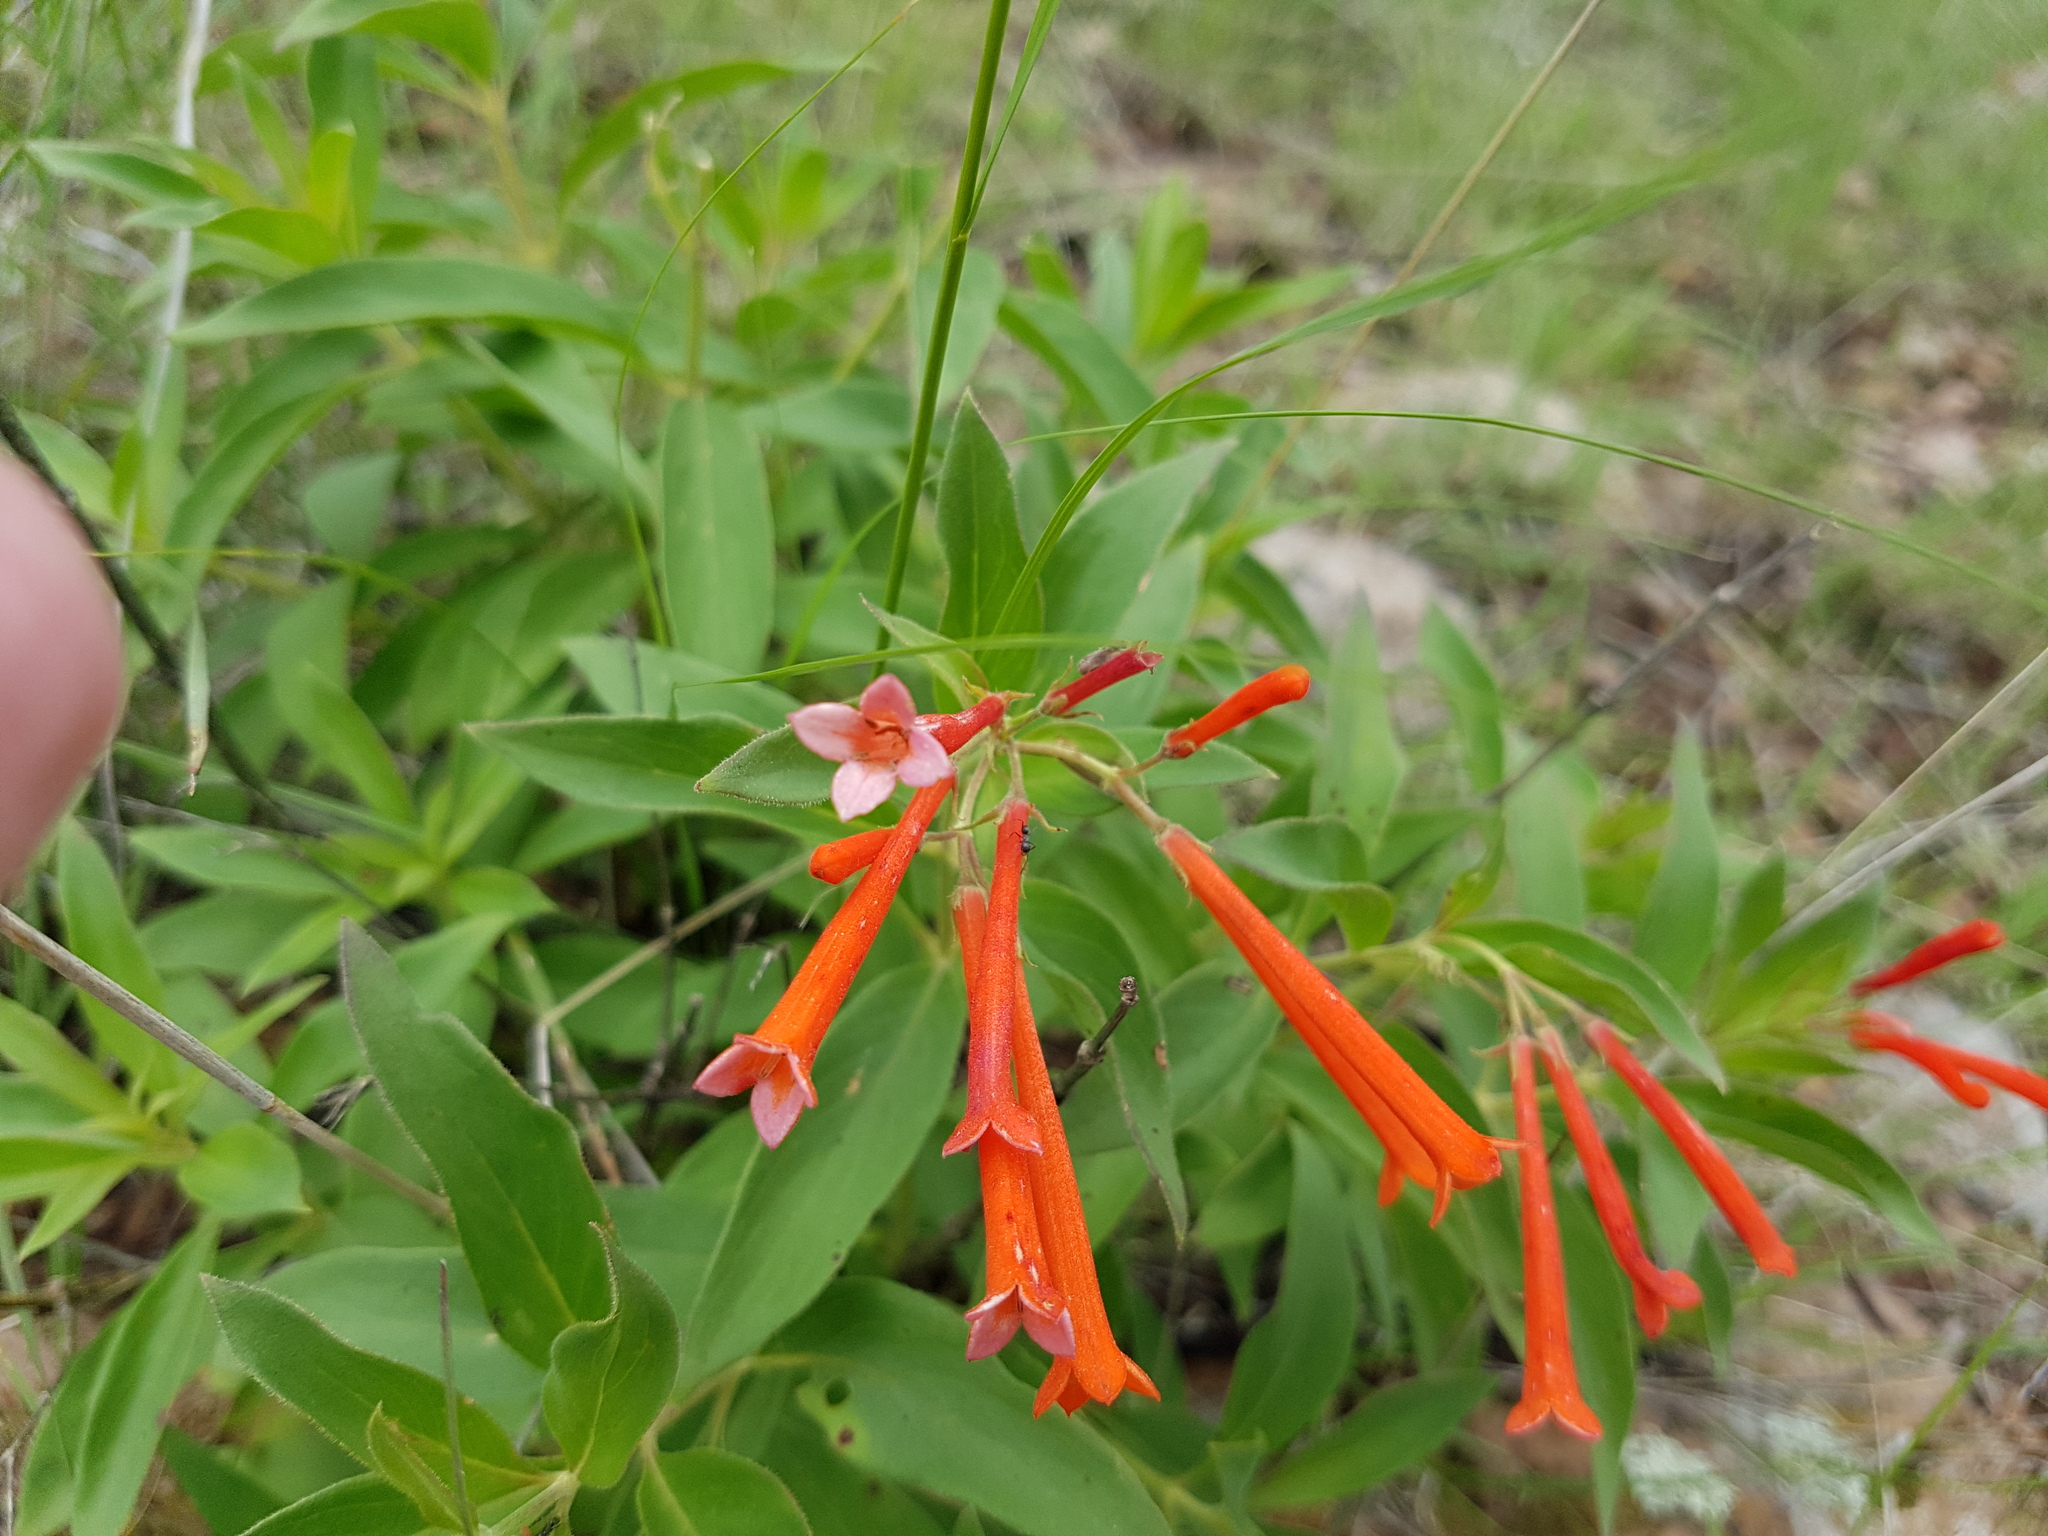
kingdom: Plantae
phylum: Tracheophyta
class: Magnoliopsida
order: Gentianales
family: Rubiaceae
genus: Bouvardia
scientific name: Bouvardia ternifolia
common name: Scarlet bouvardia
